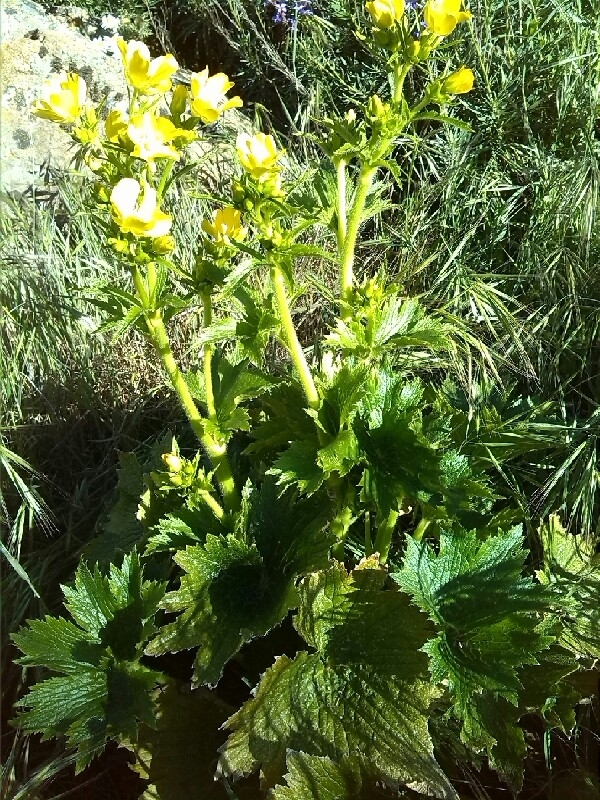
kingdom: Plantae
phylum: Tracheophyta
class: Magnoliopsida
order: Ranunculales
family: Ranunculaceae
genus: Ranunculus
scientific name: Ranunculus cortusifolius
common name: Azores buttercup
